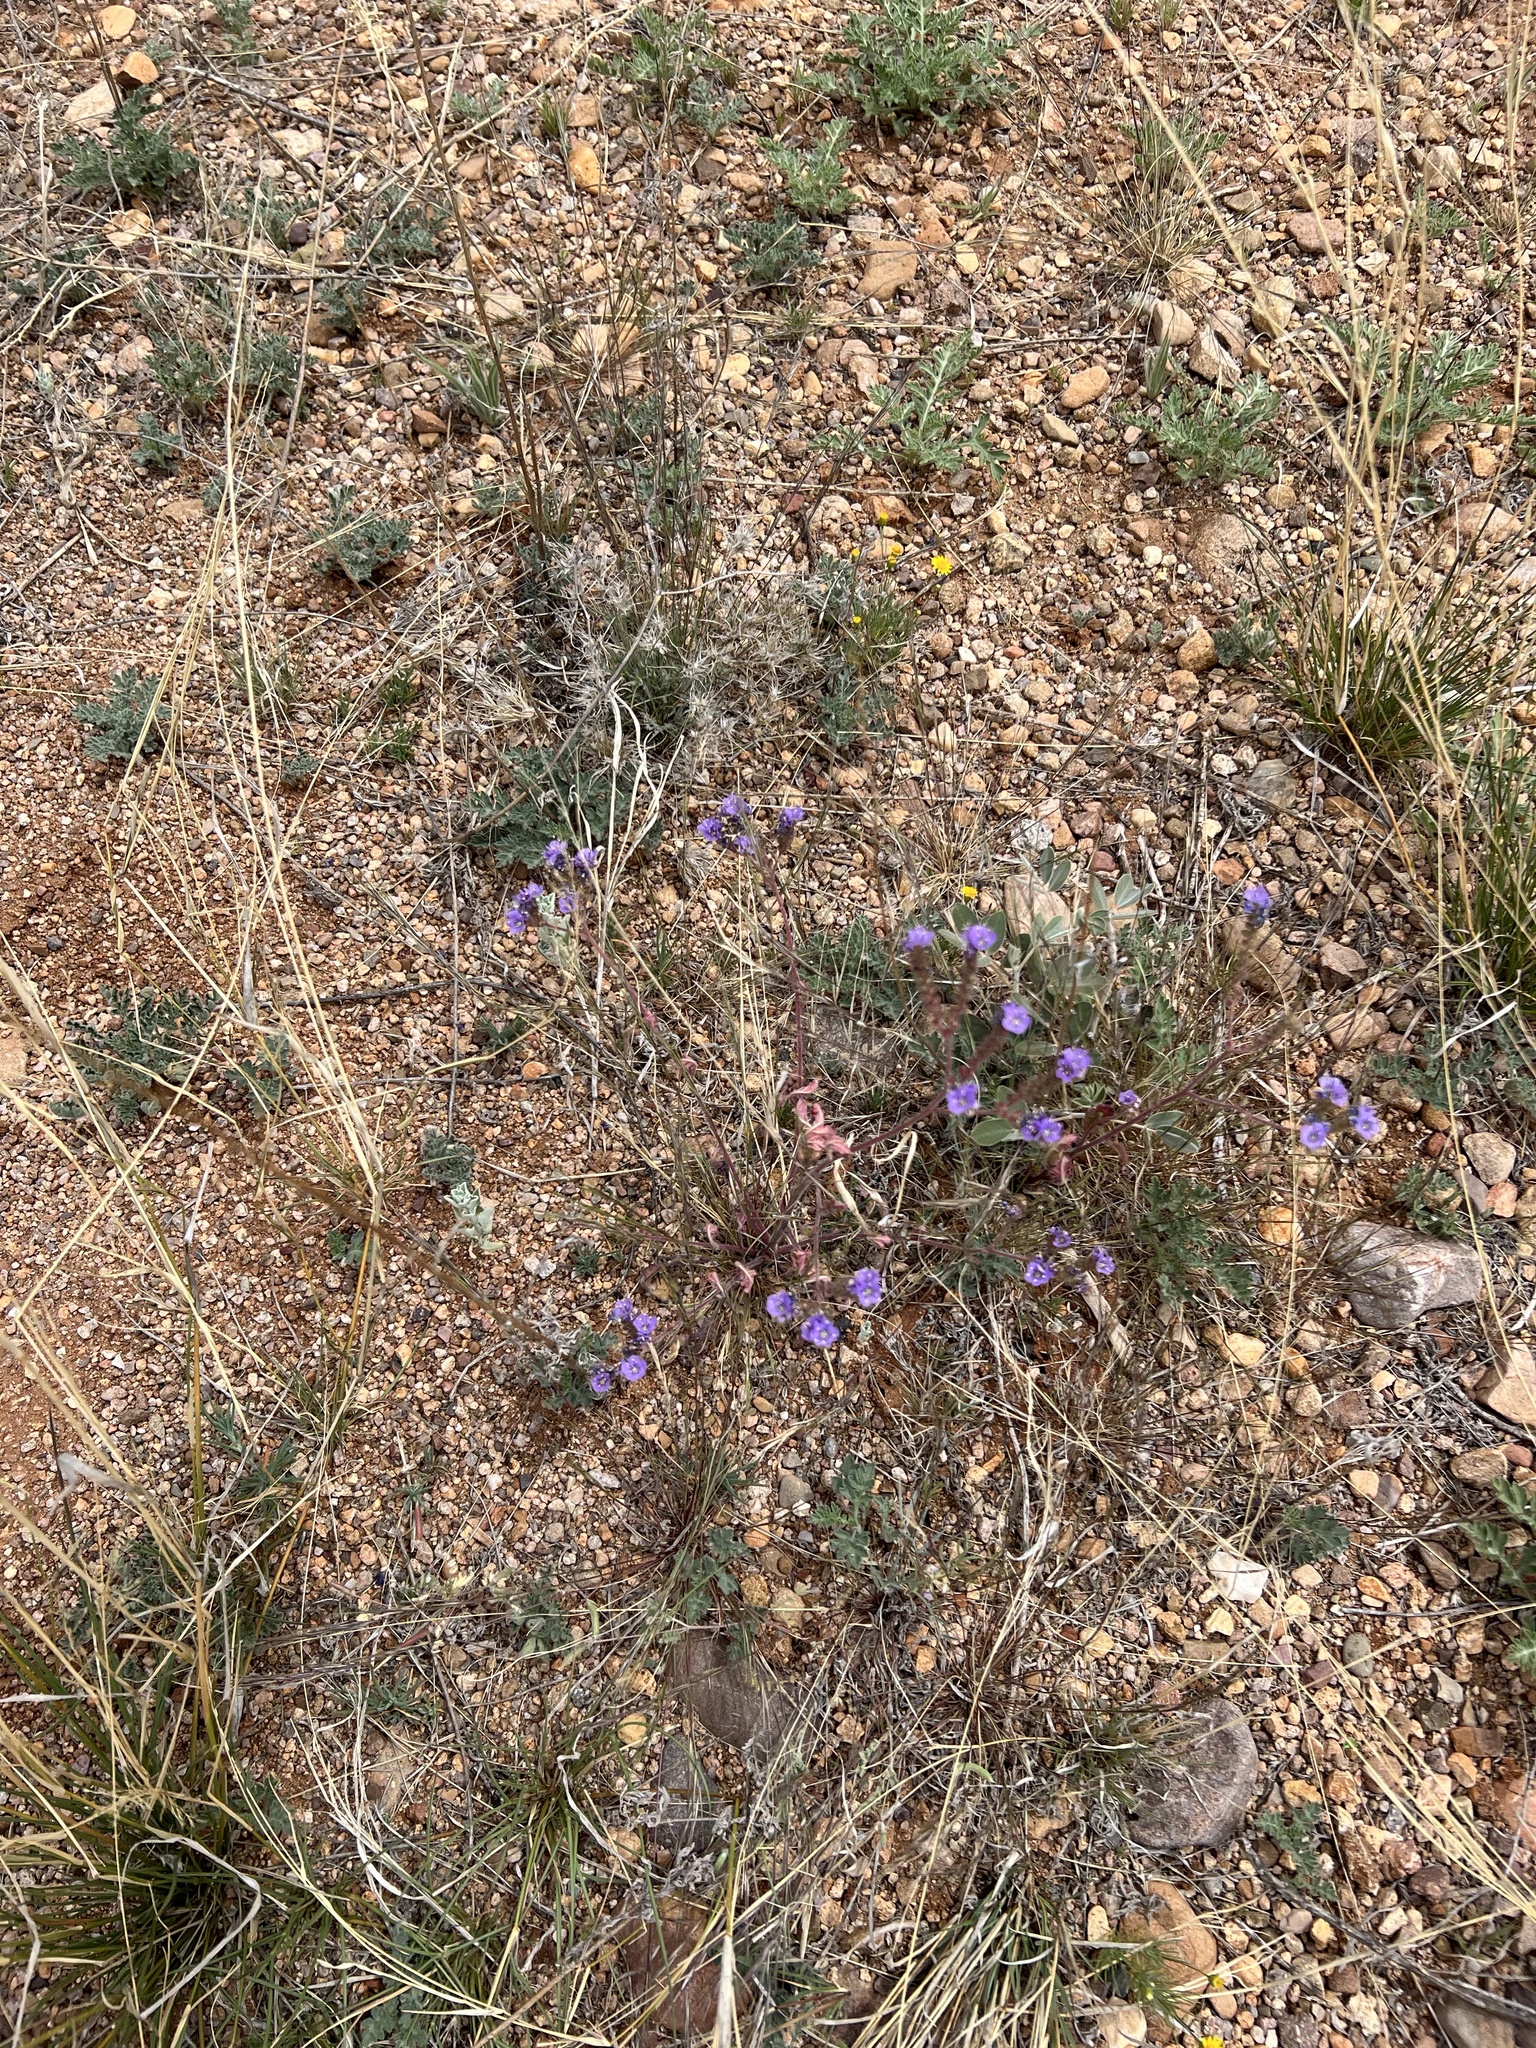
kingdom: Plantae
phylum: Tracheophyta
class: Magnoliopsida
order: Boraginales
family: Hydrophyllaceae
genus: Phacelia
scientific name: Phacelia crenulata
